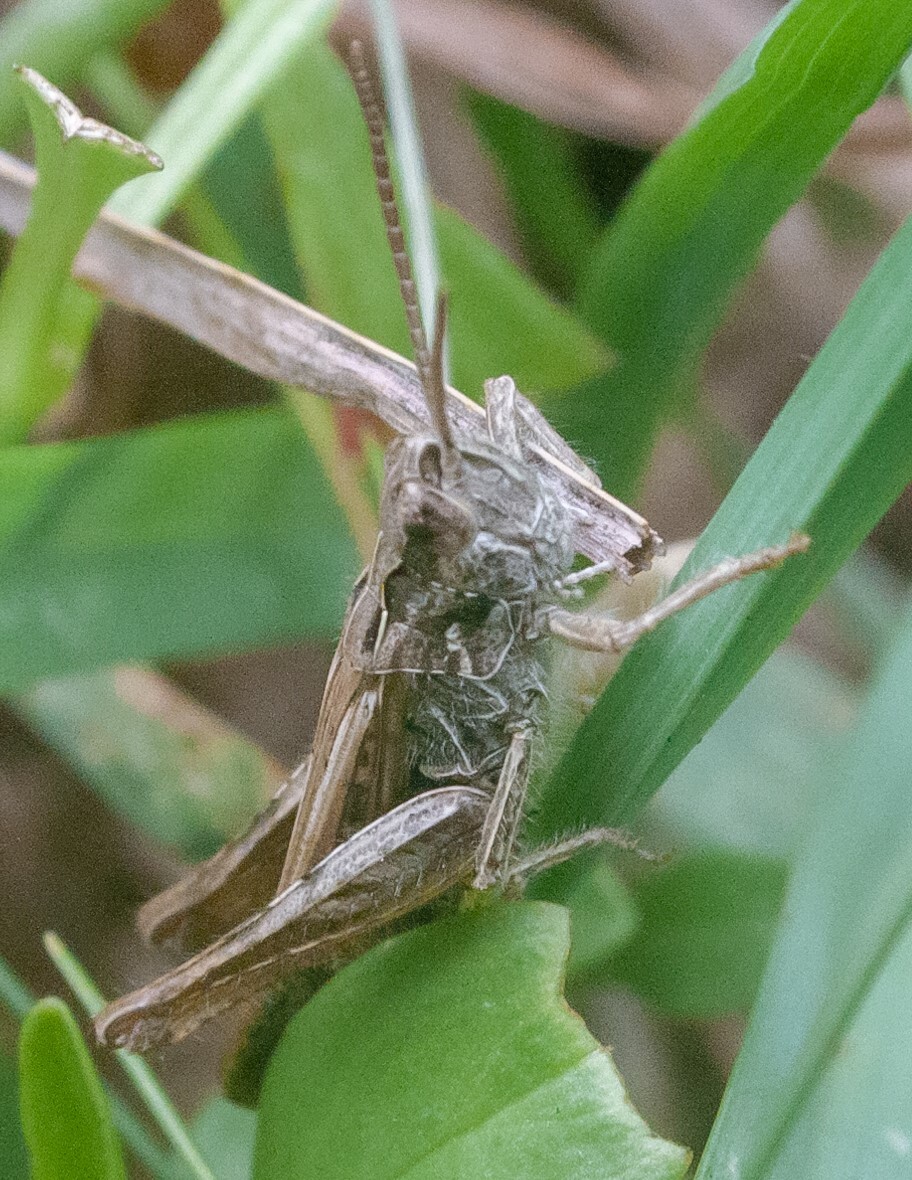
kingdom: Animalia
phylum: Arthropoda
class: Insecta
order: Orthoptera
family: Acrididae
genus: Chorthippus
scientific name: Chorthippus brunneus
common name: Field grasshopper
